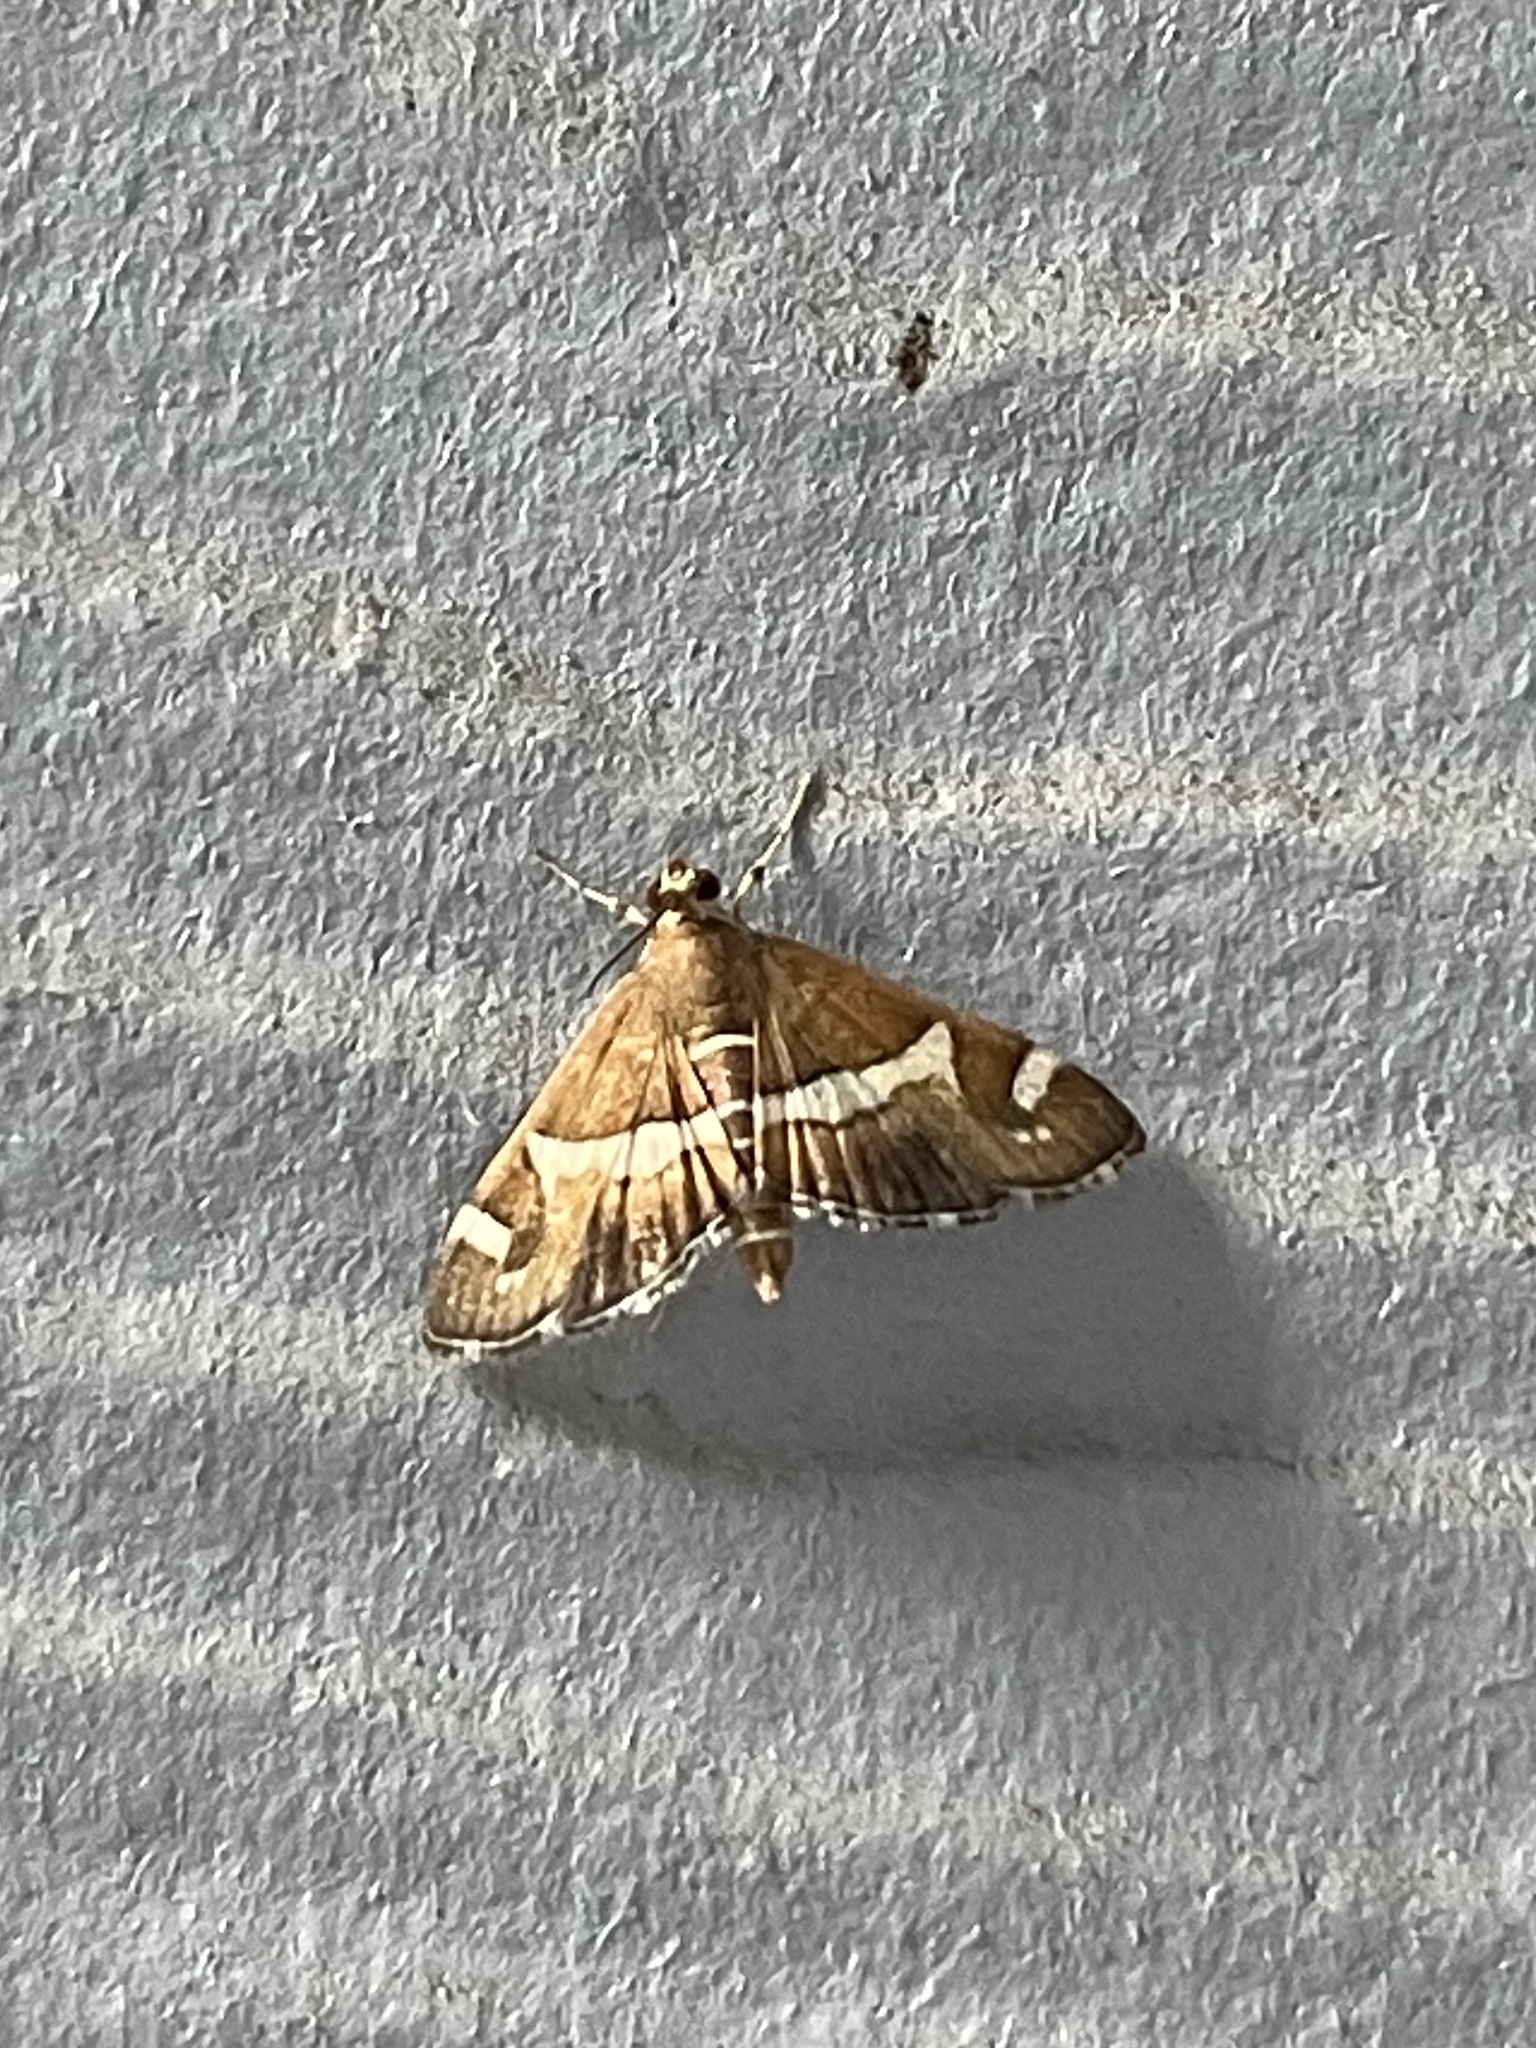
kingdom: Animalia
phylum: Arthropoda
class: Insecta
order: Lepidoptera
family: Crambidae
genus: Spoladea
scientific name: Spoladea recurvalis
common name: Beet webworm moth
